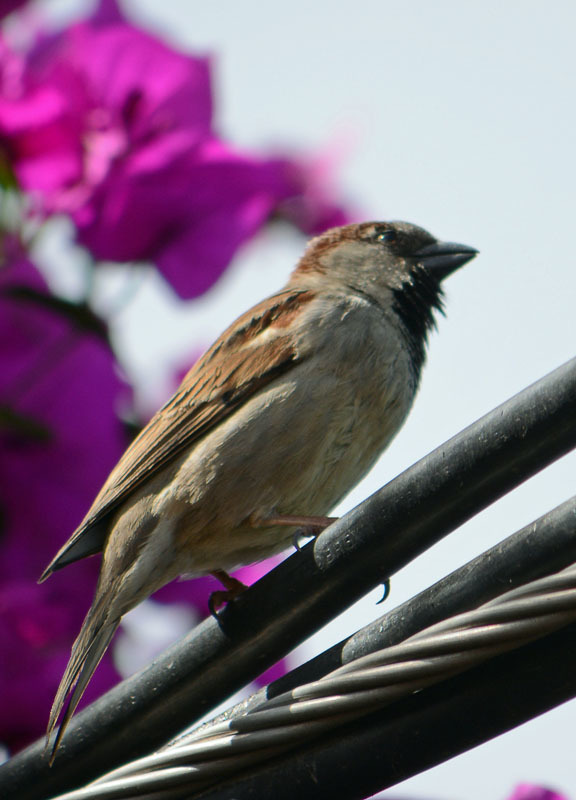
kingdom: Animalia
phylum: Chordata
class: Aves
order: Passeriformes
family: Passeridae
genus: Passer
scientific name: Passer domesticus
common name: House sparrow
